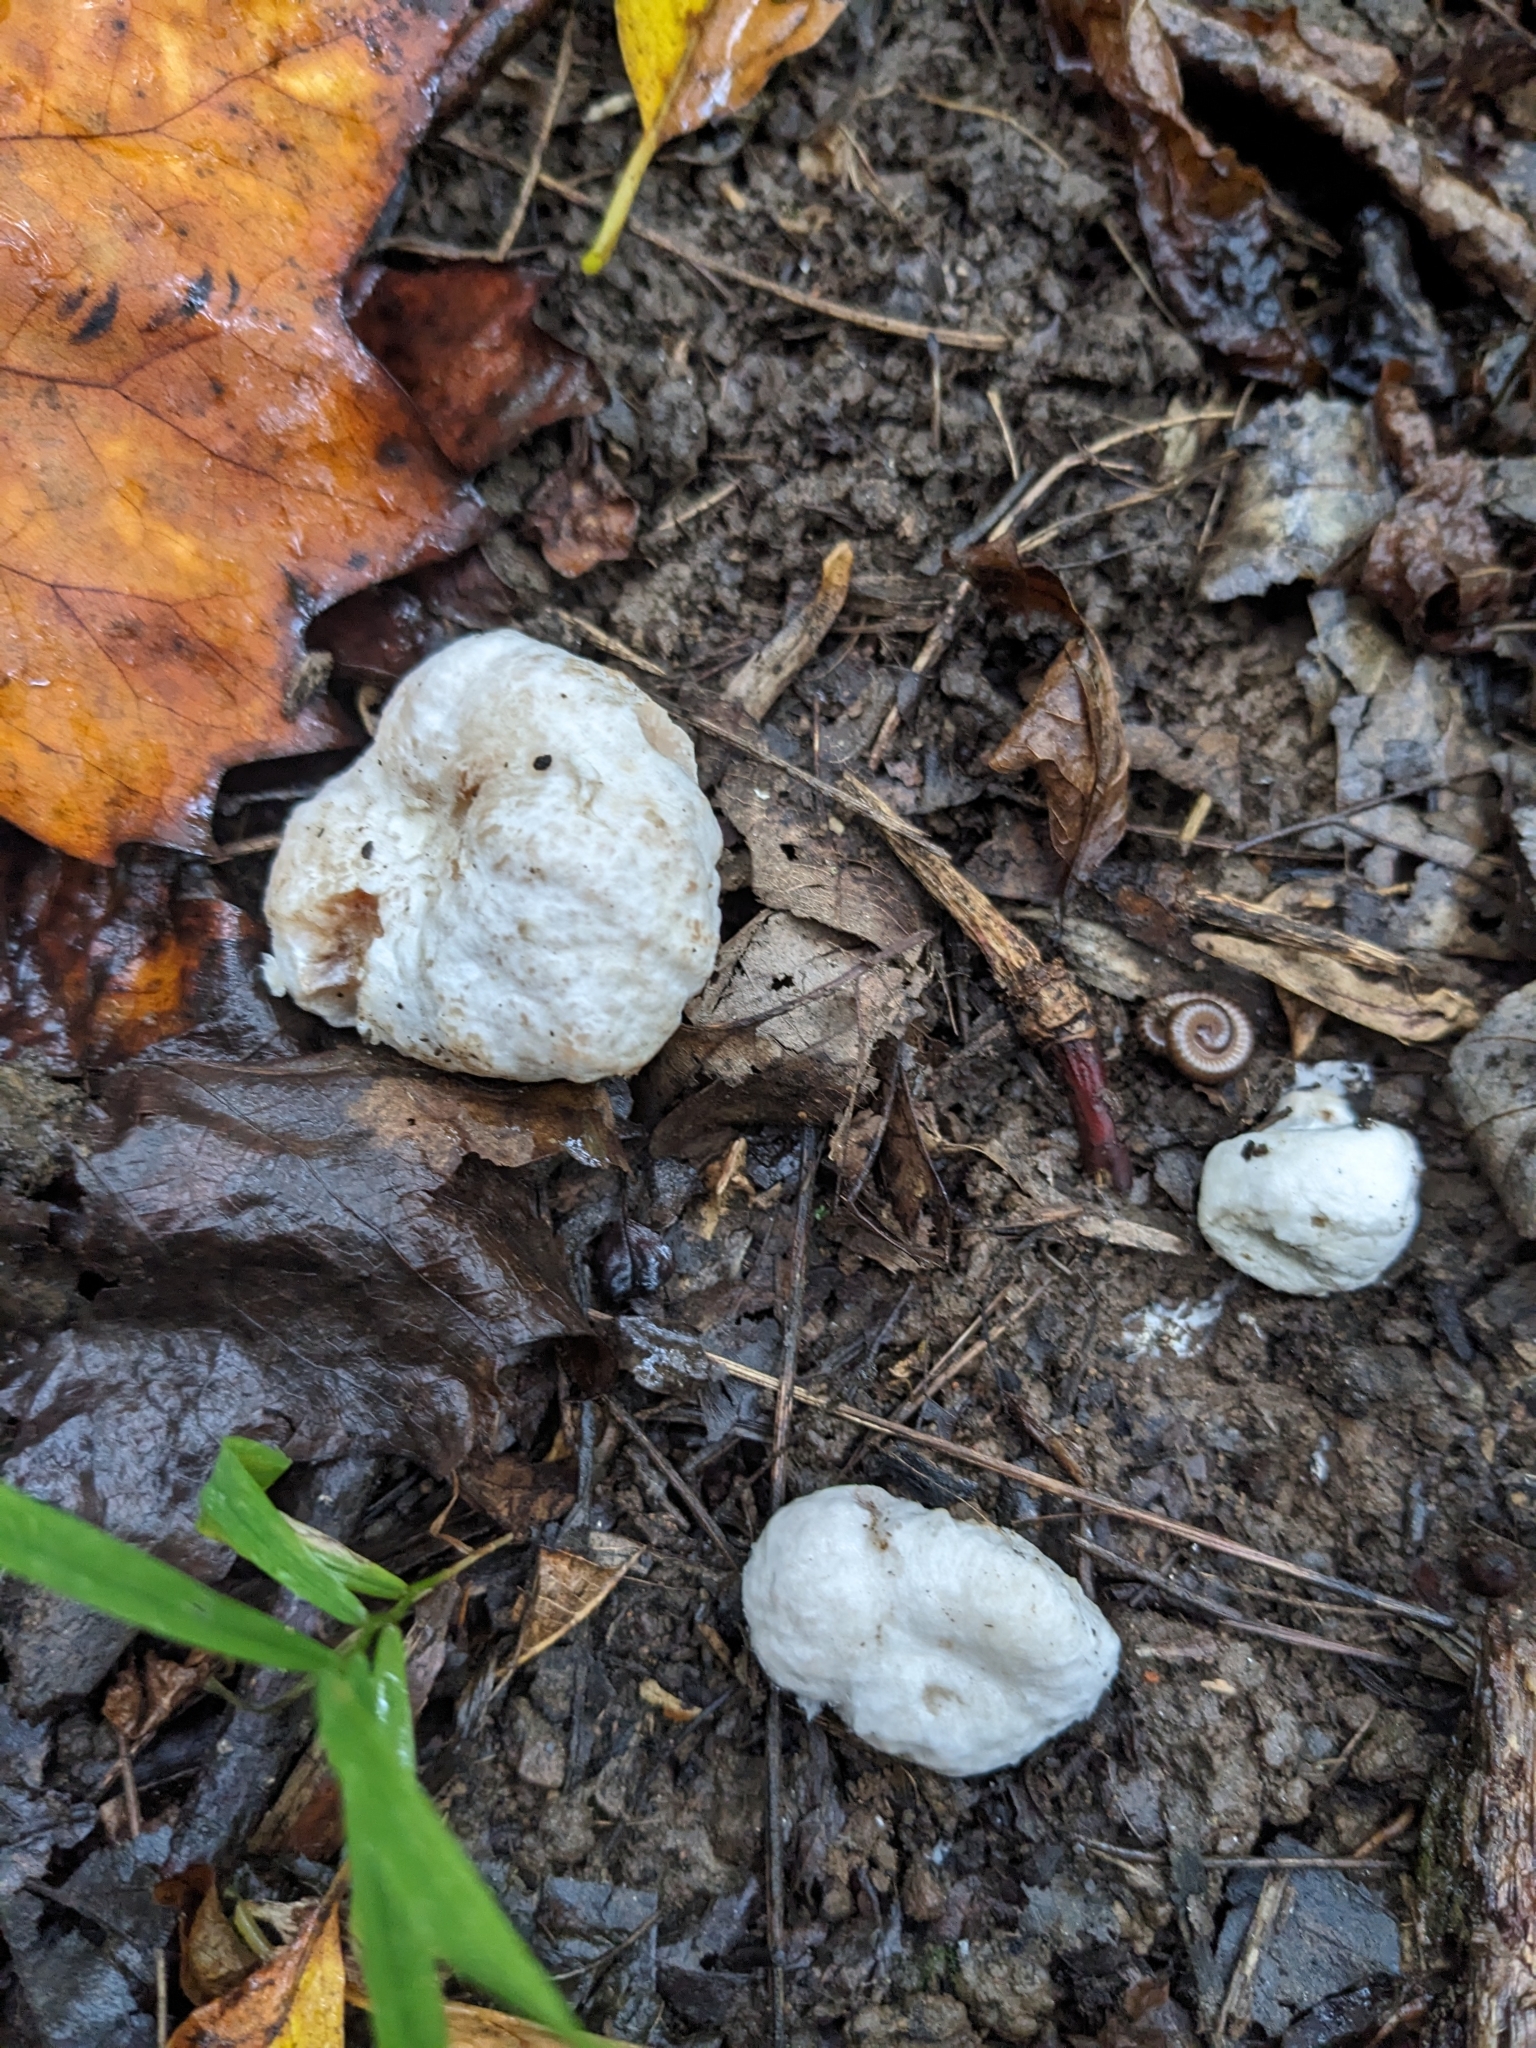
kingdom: Fungi
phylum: Basidiomycota
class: Agaricomycetes
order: Agaricales
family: Entolomataceae
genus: Entoloma
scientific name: Entoloma abortivum
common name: Aborted entoloma
